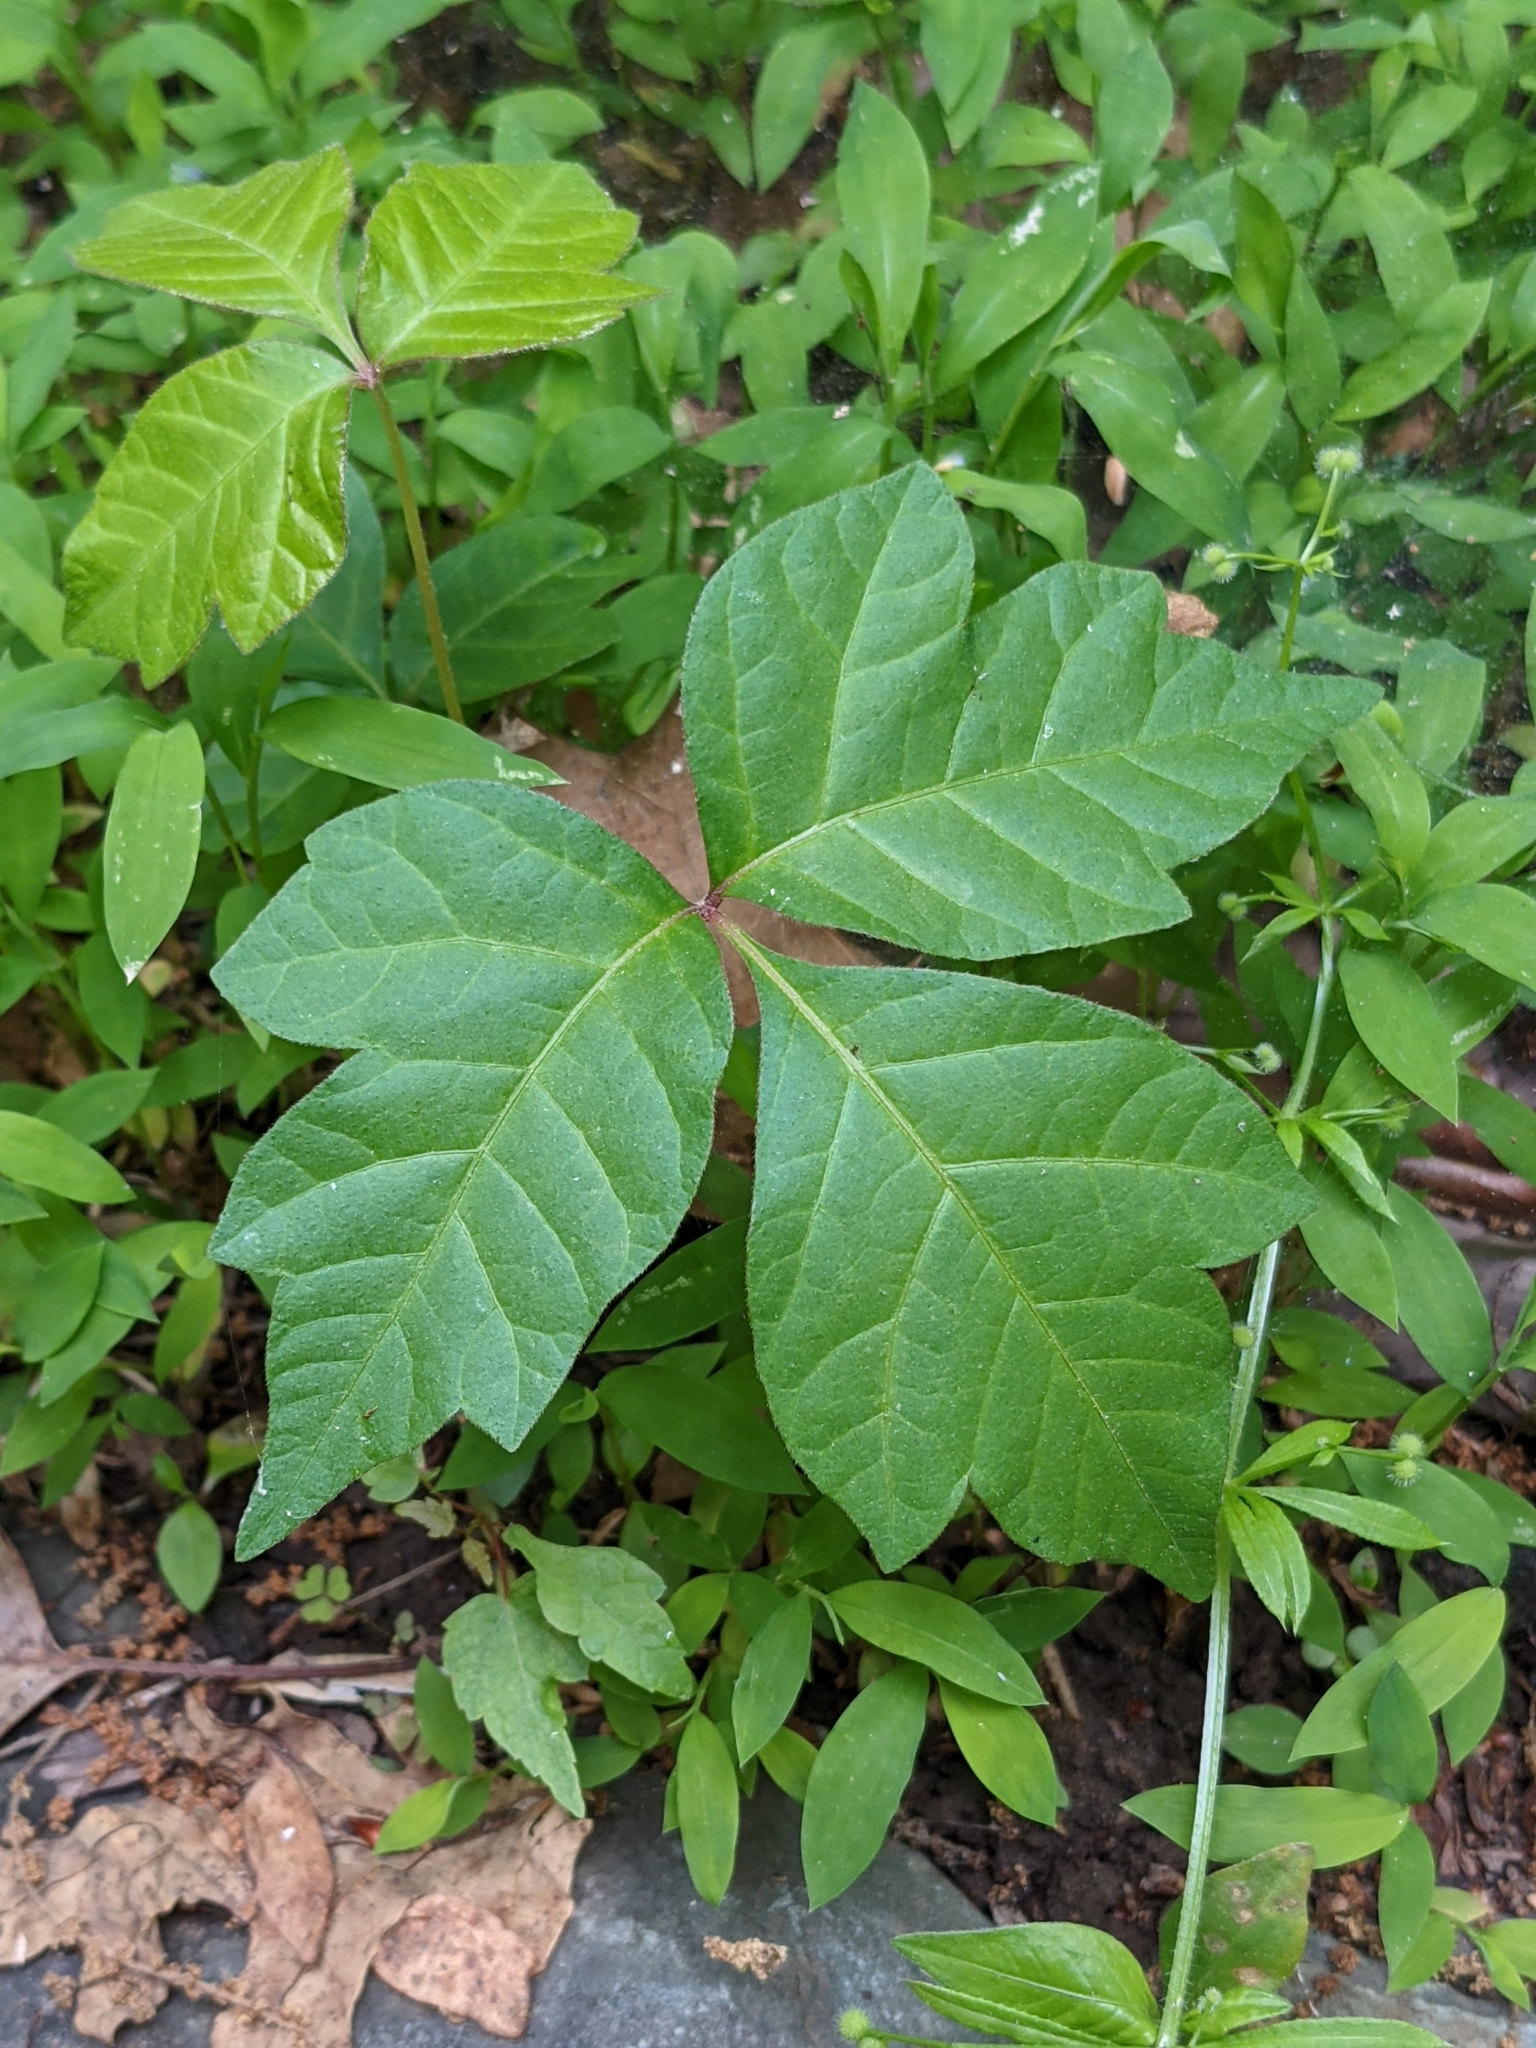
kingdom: Plantae
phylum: Tracheophyta
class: Magnoliopsida
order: Sapindales
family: Anacardiaceae
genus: Toxicodendron
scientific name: Toxicodendron radicans
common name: Poison ivy
